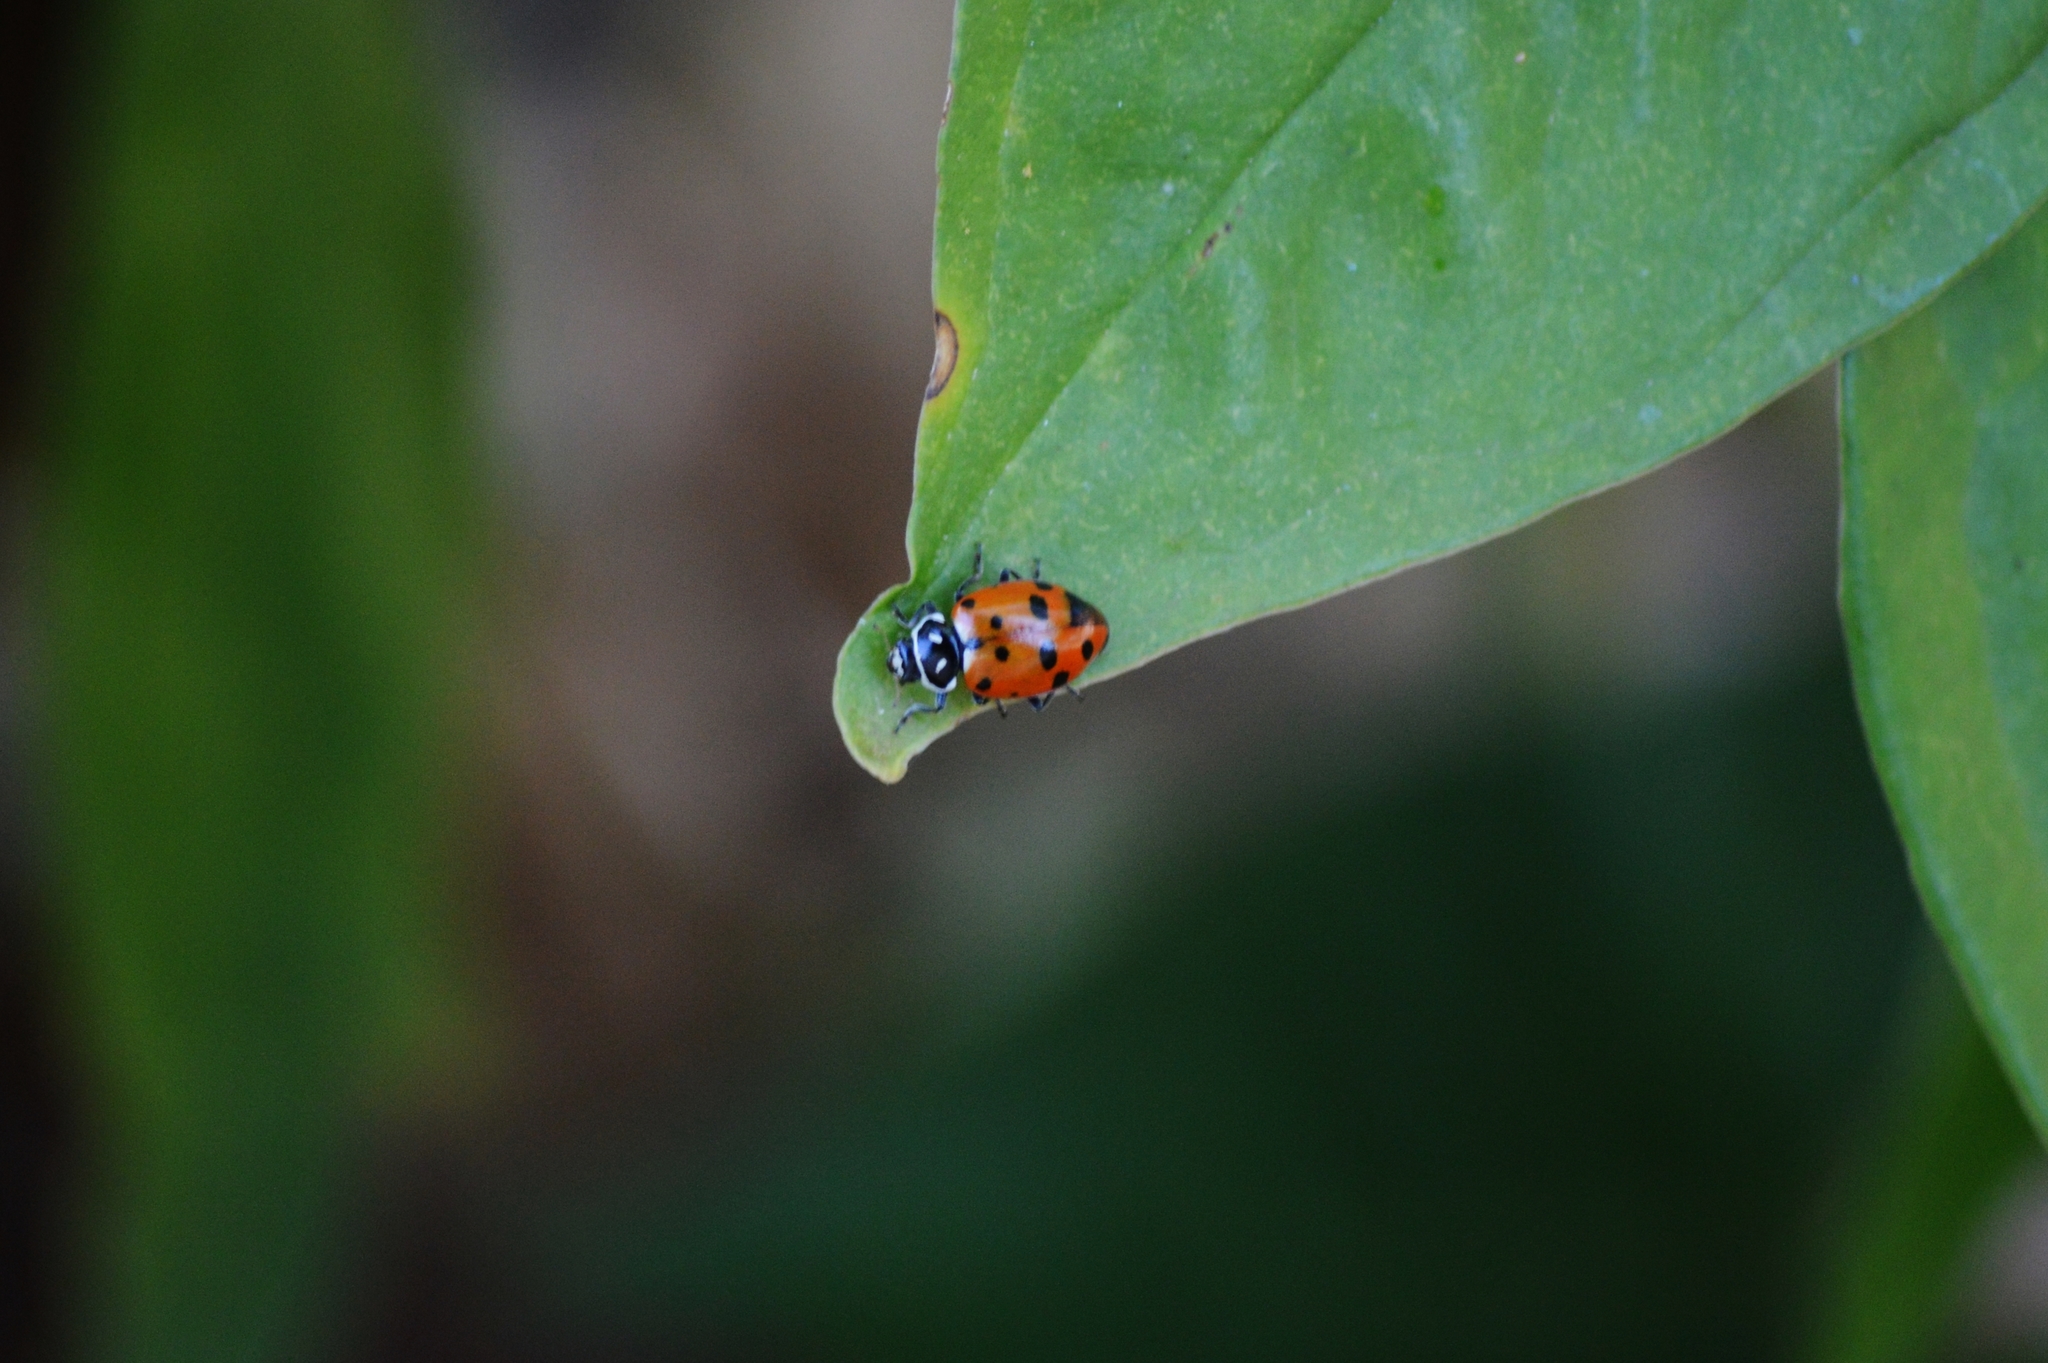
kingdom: Animalia
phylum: Arthropoda
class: Insecta
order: Coleoptera
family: Coccinellidae
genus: Hippodamia
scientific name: Hippodamia convergens
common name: Convergent lady beetle
